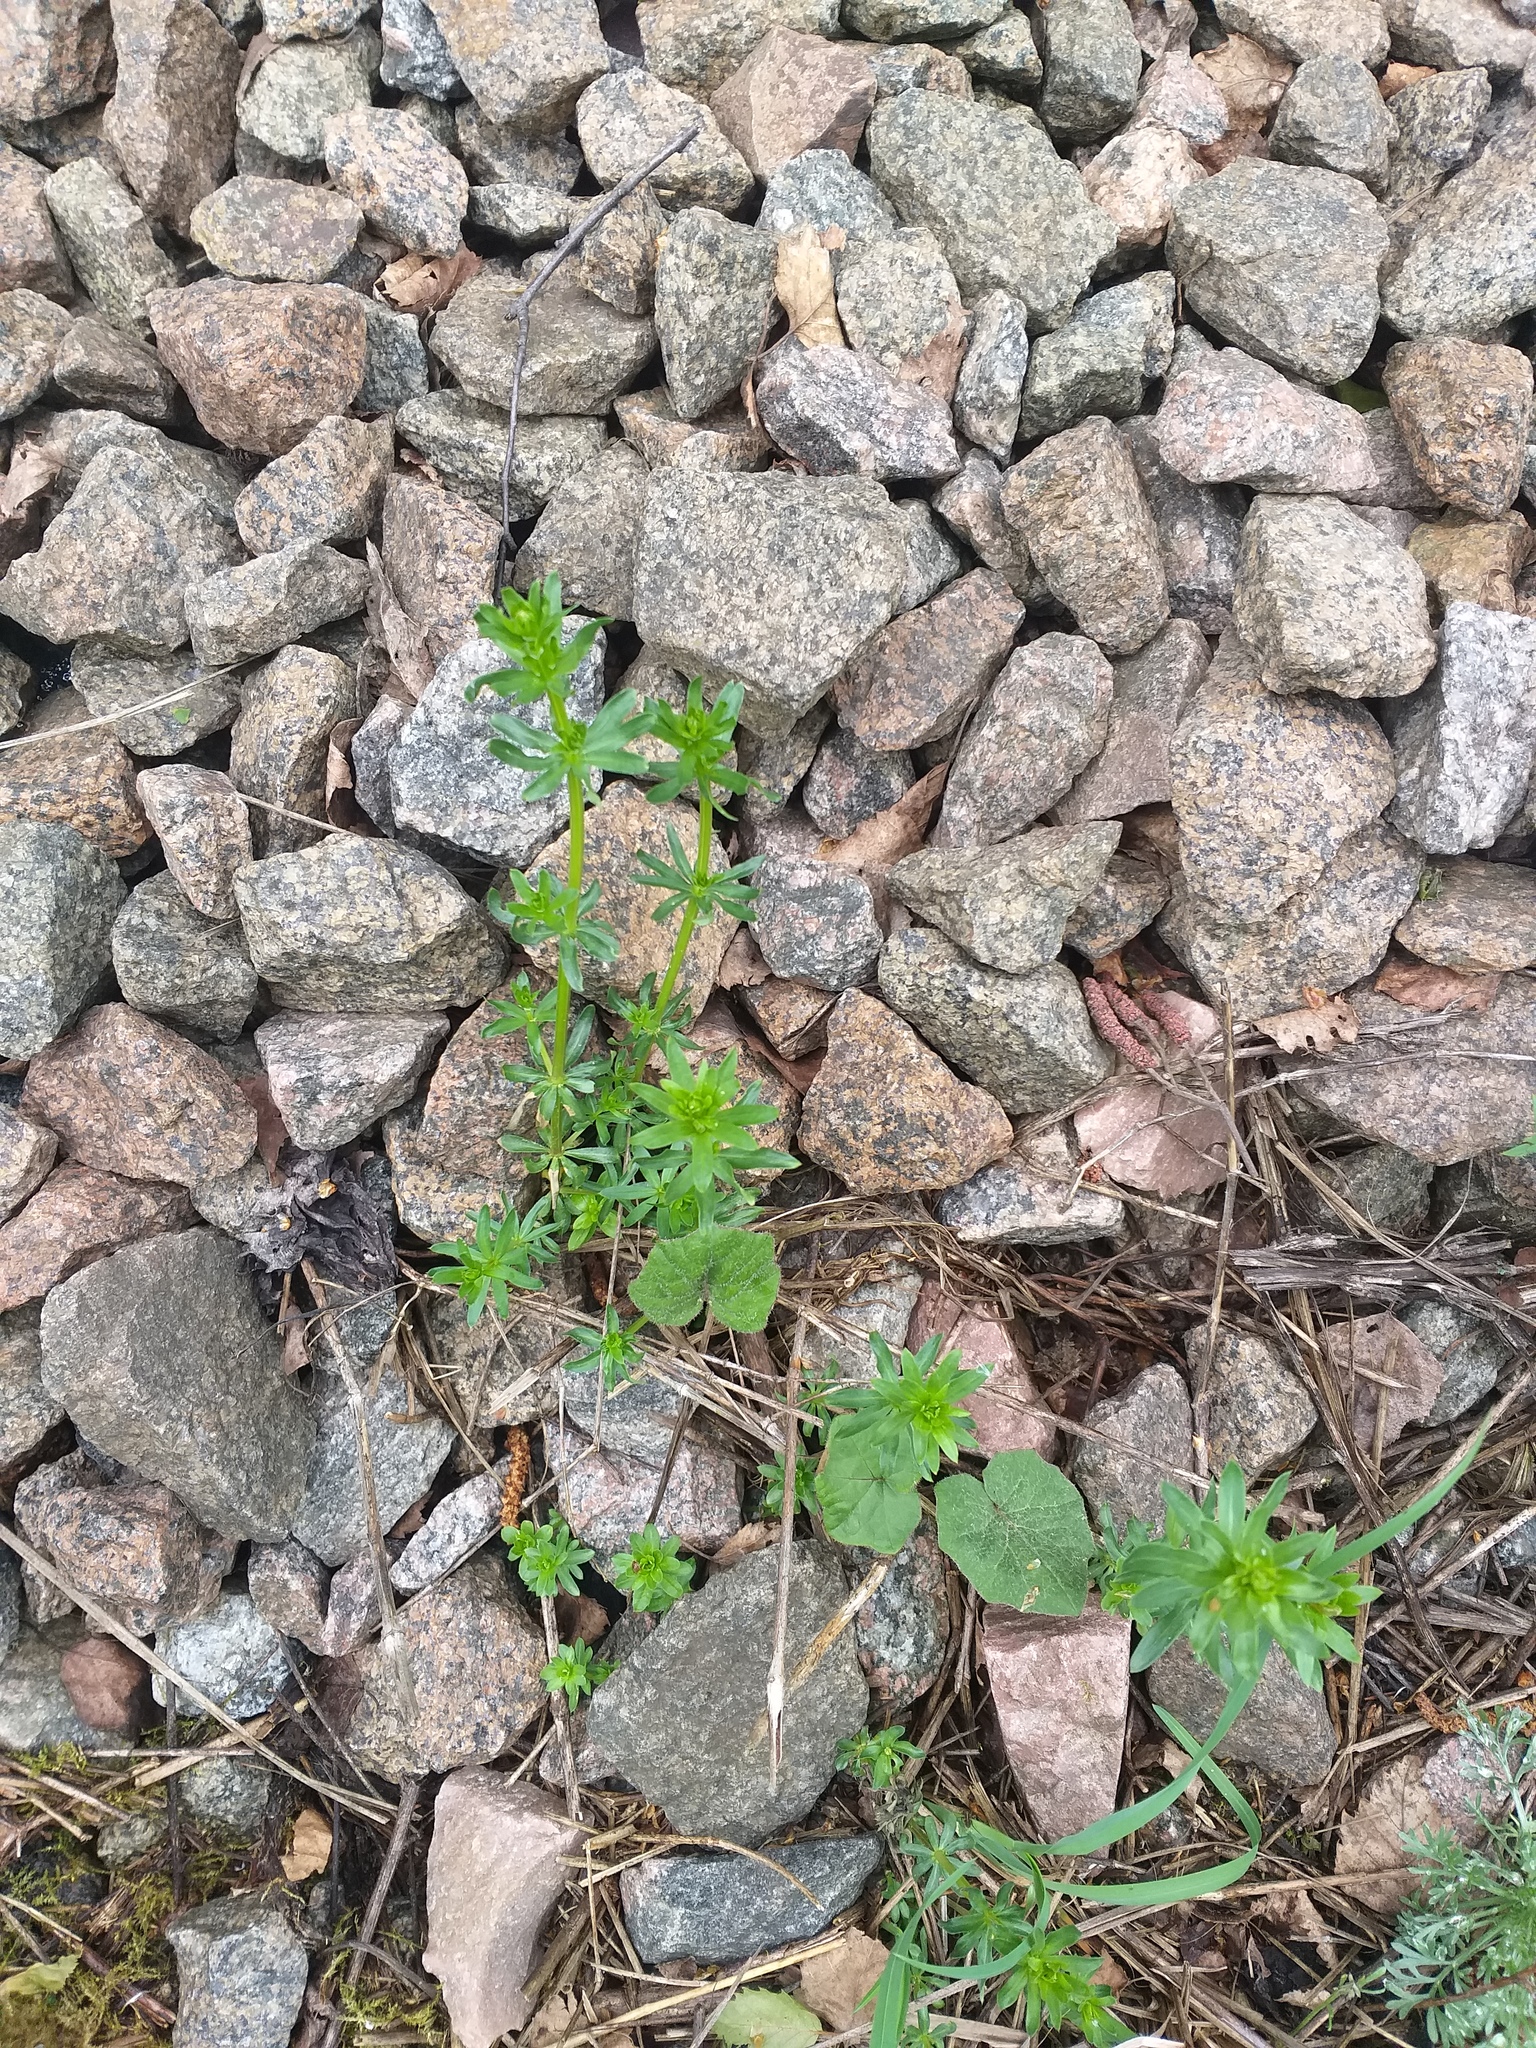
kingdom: Plantae
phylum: Tracheophyta
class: Magnoliopsida
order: Gentianales
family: Rubiaceae
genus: Galium
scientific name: Galium mollugo
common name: Hedge bedstraw
